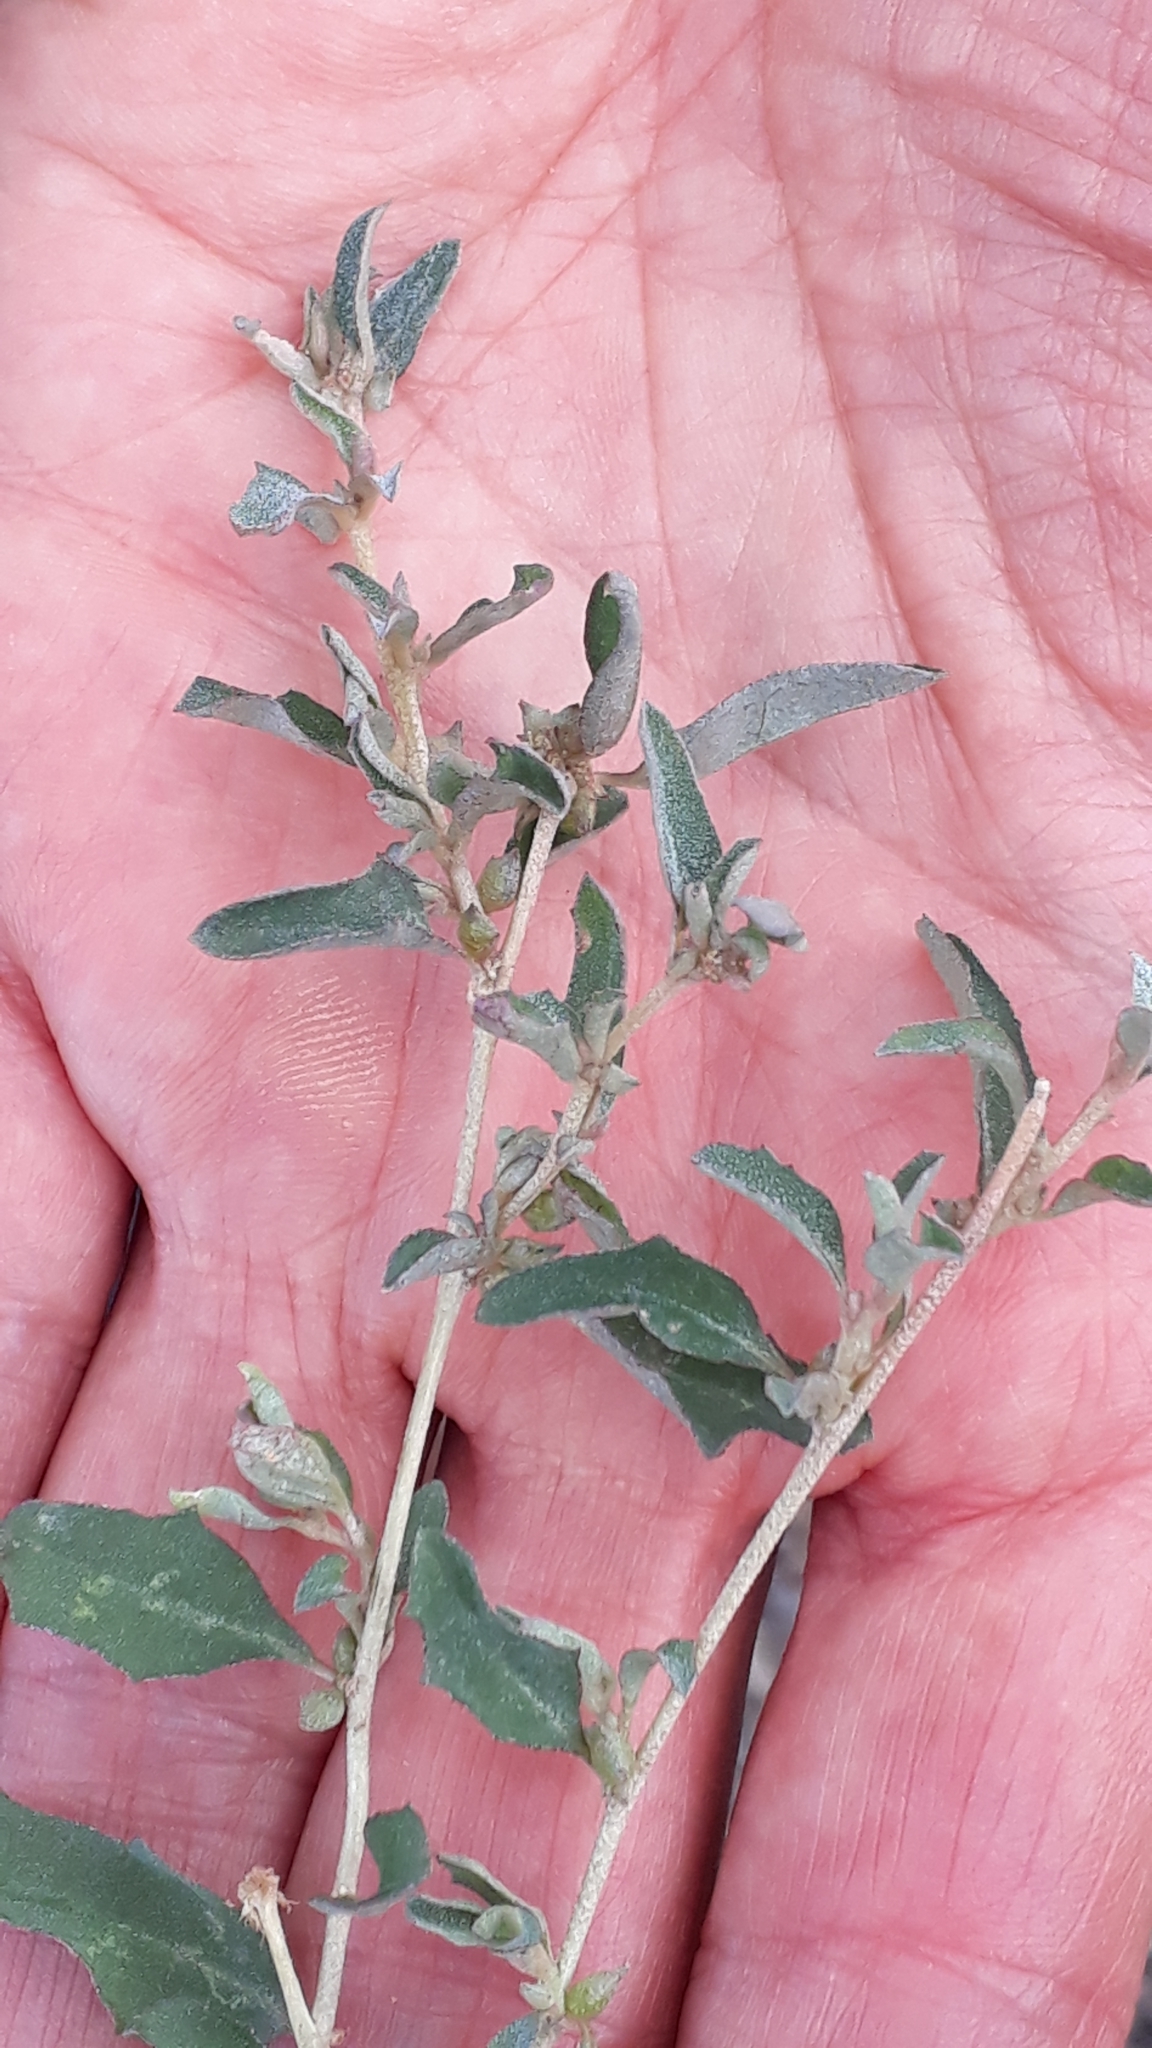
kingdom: Plantae
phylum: Tracheophyta
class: Magnoliopsida
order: Caryophyllales
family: Amaranthaceae
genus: Atriplex
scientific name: Atriplex semibaccata
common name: Australian saltbush
